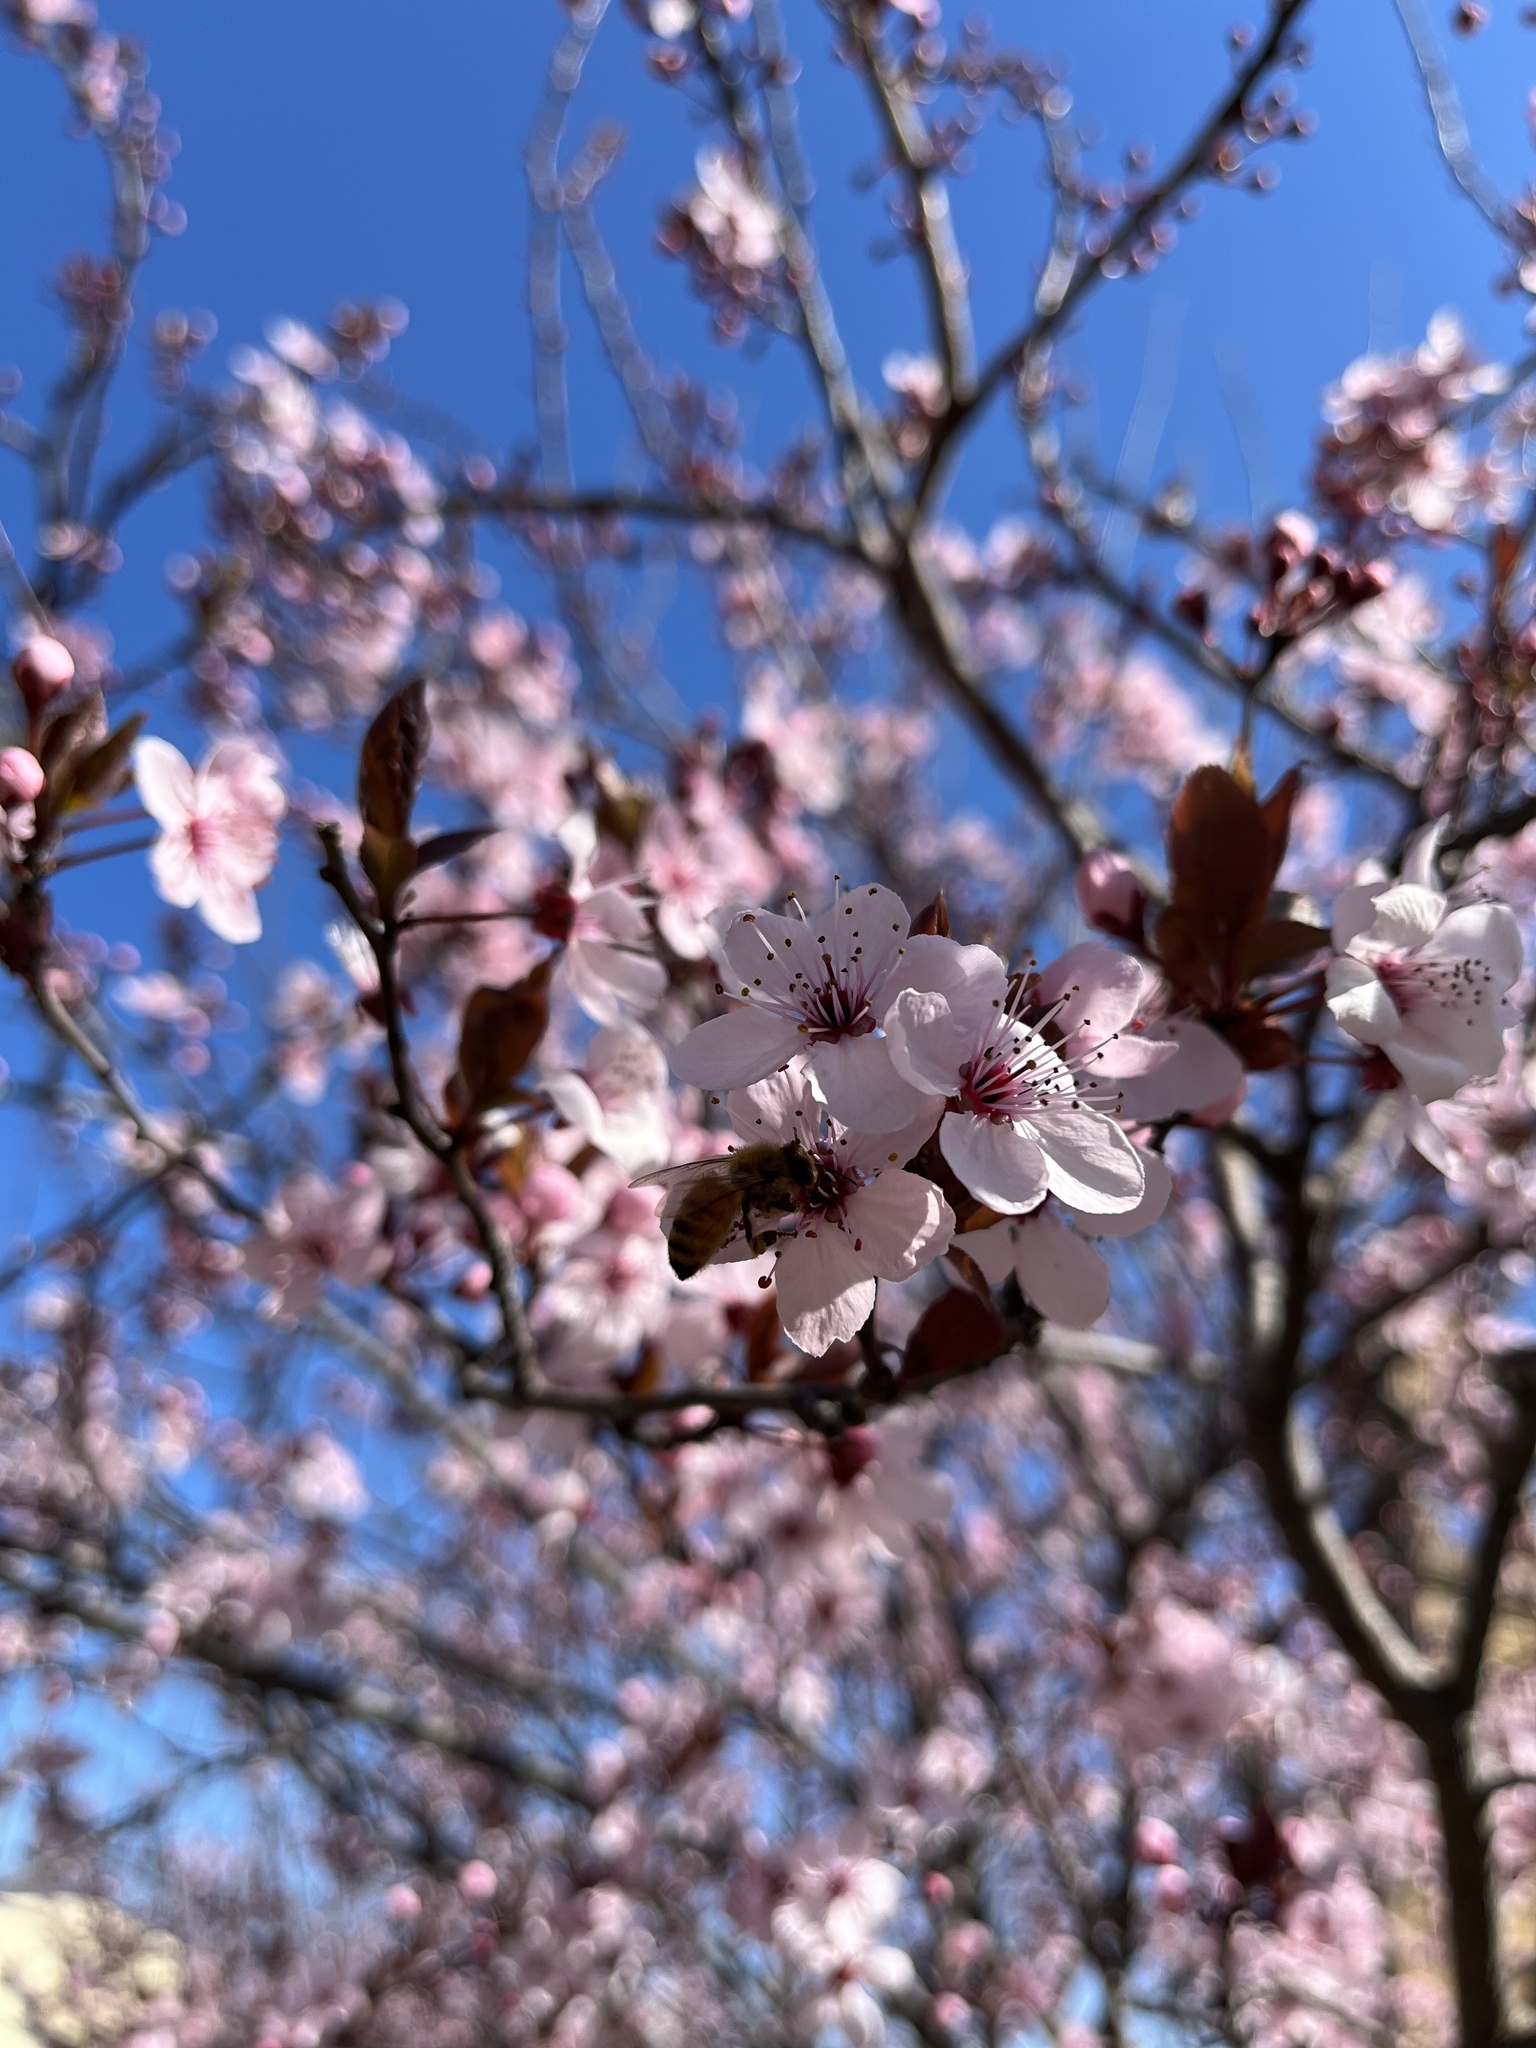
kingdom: Animalia
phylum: Arthropoda
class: Insecta
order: Hymenoptera
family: Apidae
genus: Apis
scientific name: Apis mellifera
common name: Honey bee
